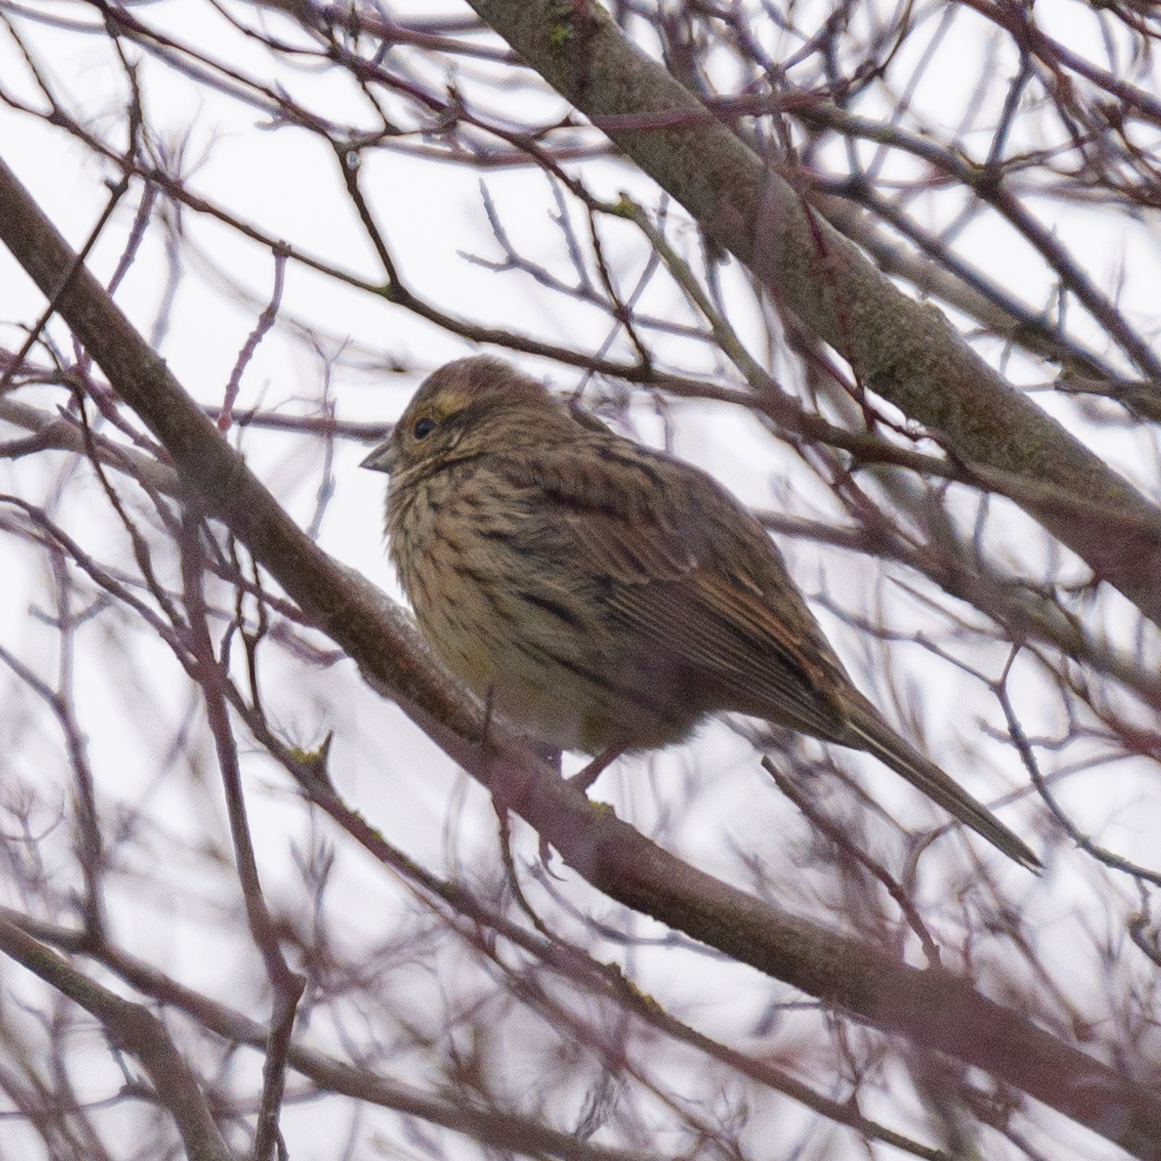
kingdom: Animalia
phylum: Chordata
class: Aves
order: Passeriformes
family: Emberizidae
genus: Emberiza
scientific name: Emberiza cirlus
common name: Cirl bunting
